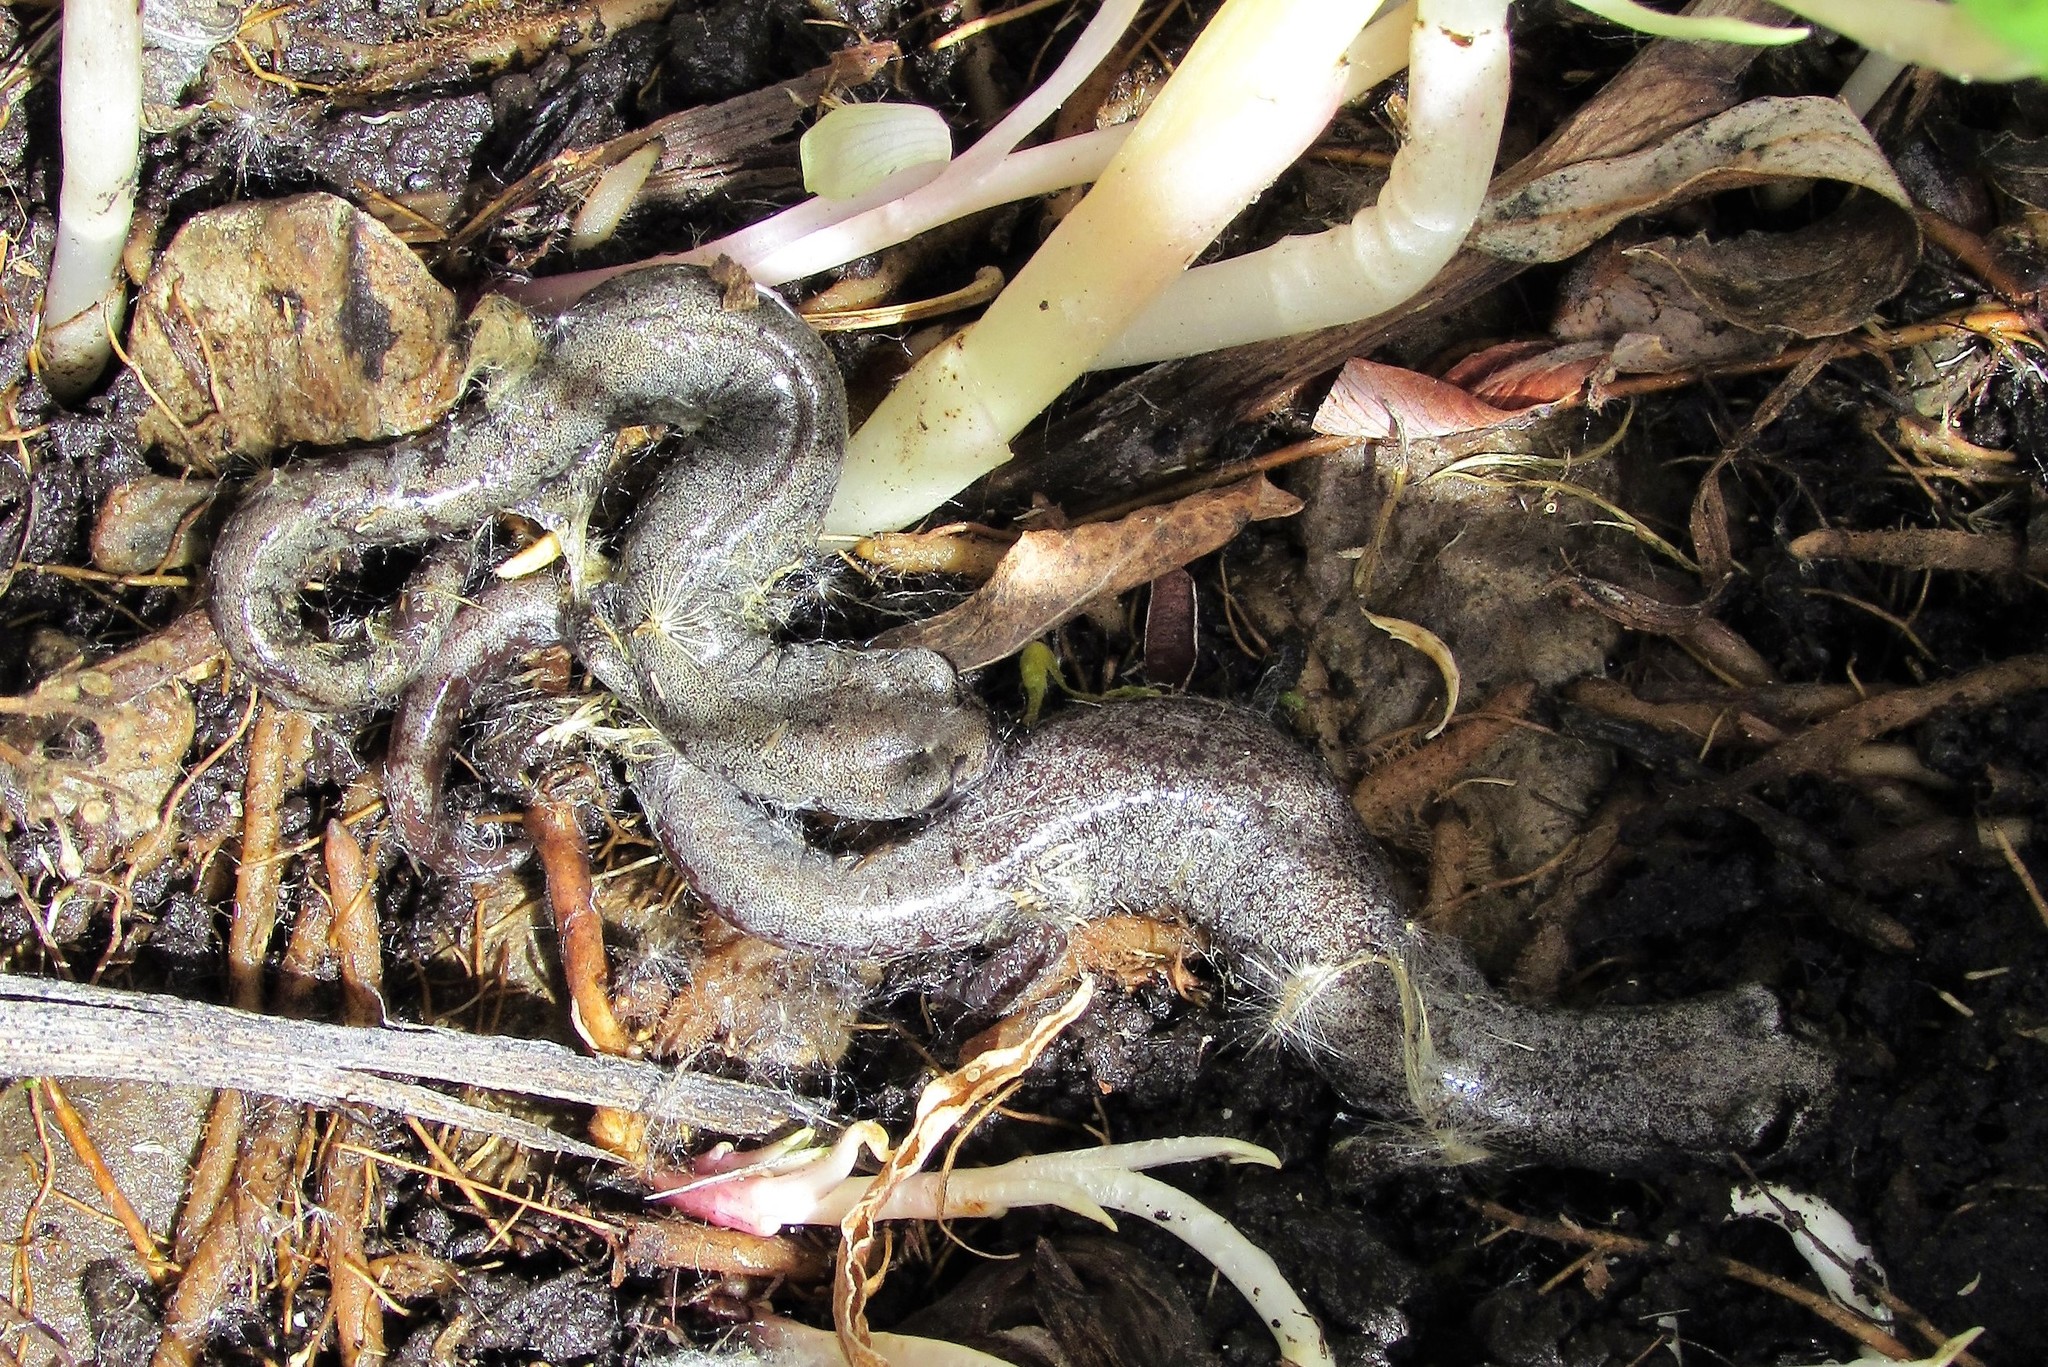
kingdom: Animalia
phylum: Chordata
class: Amphibia
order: Caudata
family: Plethodontidae
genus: Batrachoseps
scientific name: Batrachoseps campi
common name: Inyo mountains salamander
